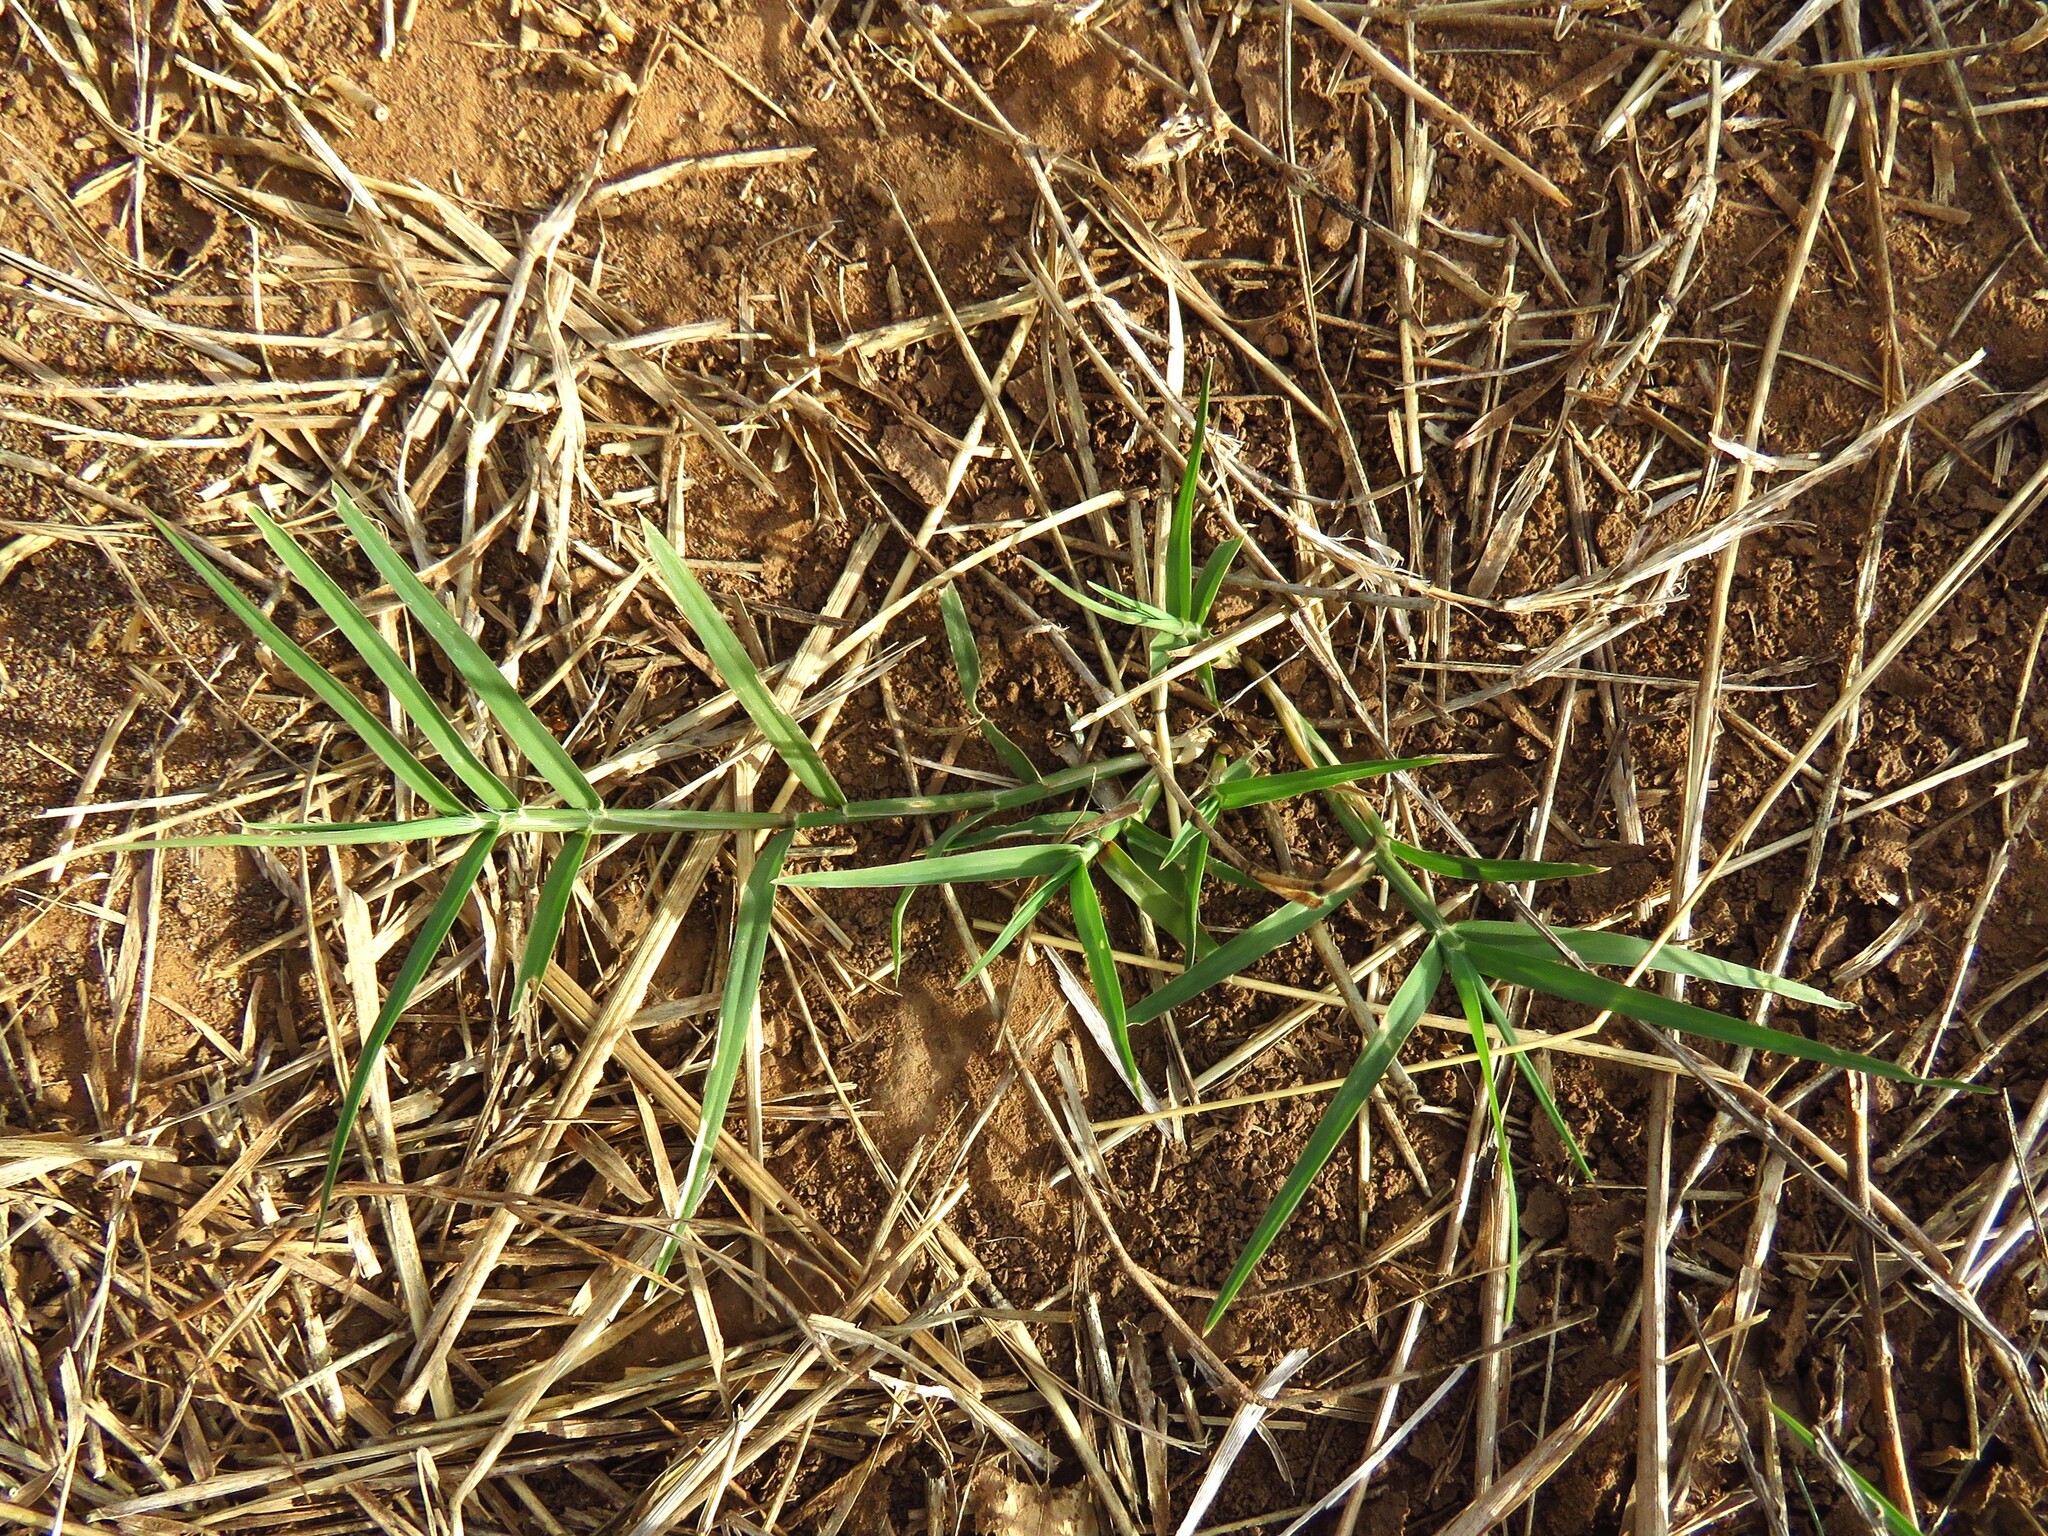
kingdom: Plantae
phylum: Tracheophyta
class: Liliopsida
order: Poales
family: Poaceae
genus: Cynodon
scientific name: Cynodon dactylon
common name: Bermuda grass
